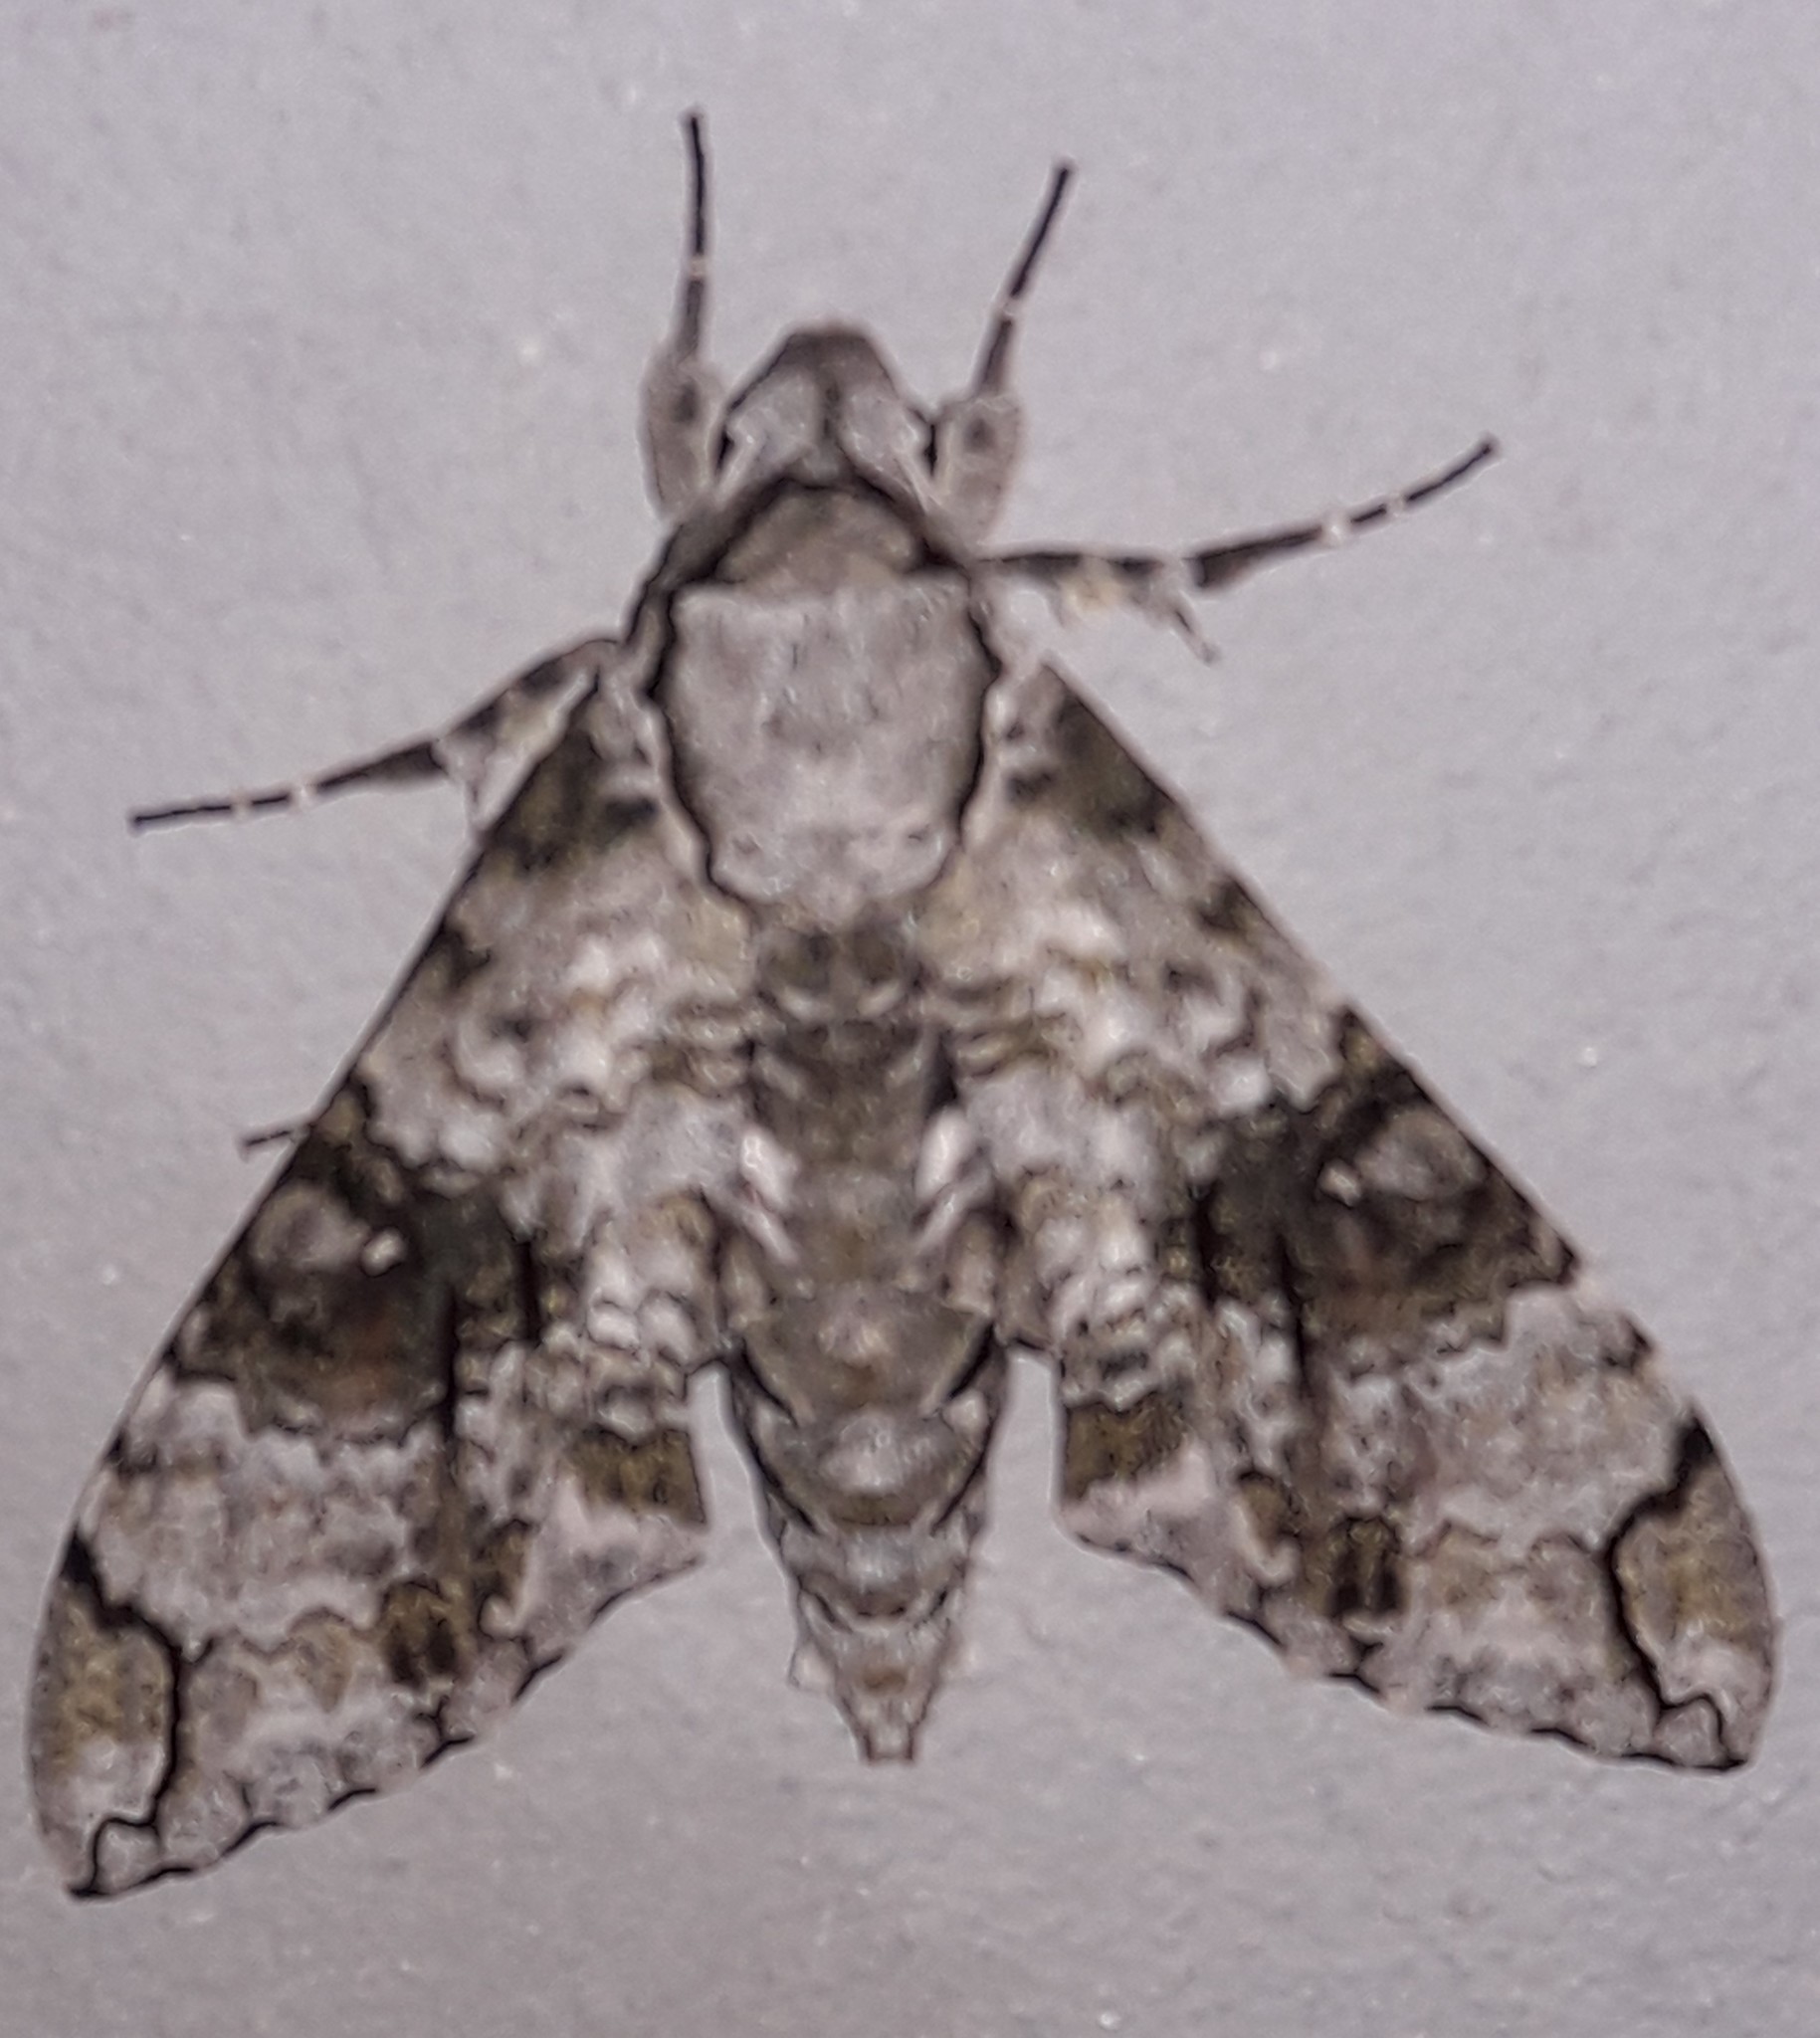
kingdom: Animalia
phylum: Arthropoda
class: Insecta
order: Lepidoptera
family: Sphingidae
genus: Manduca
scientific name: Manduca florestan
